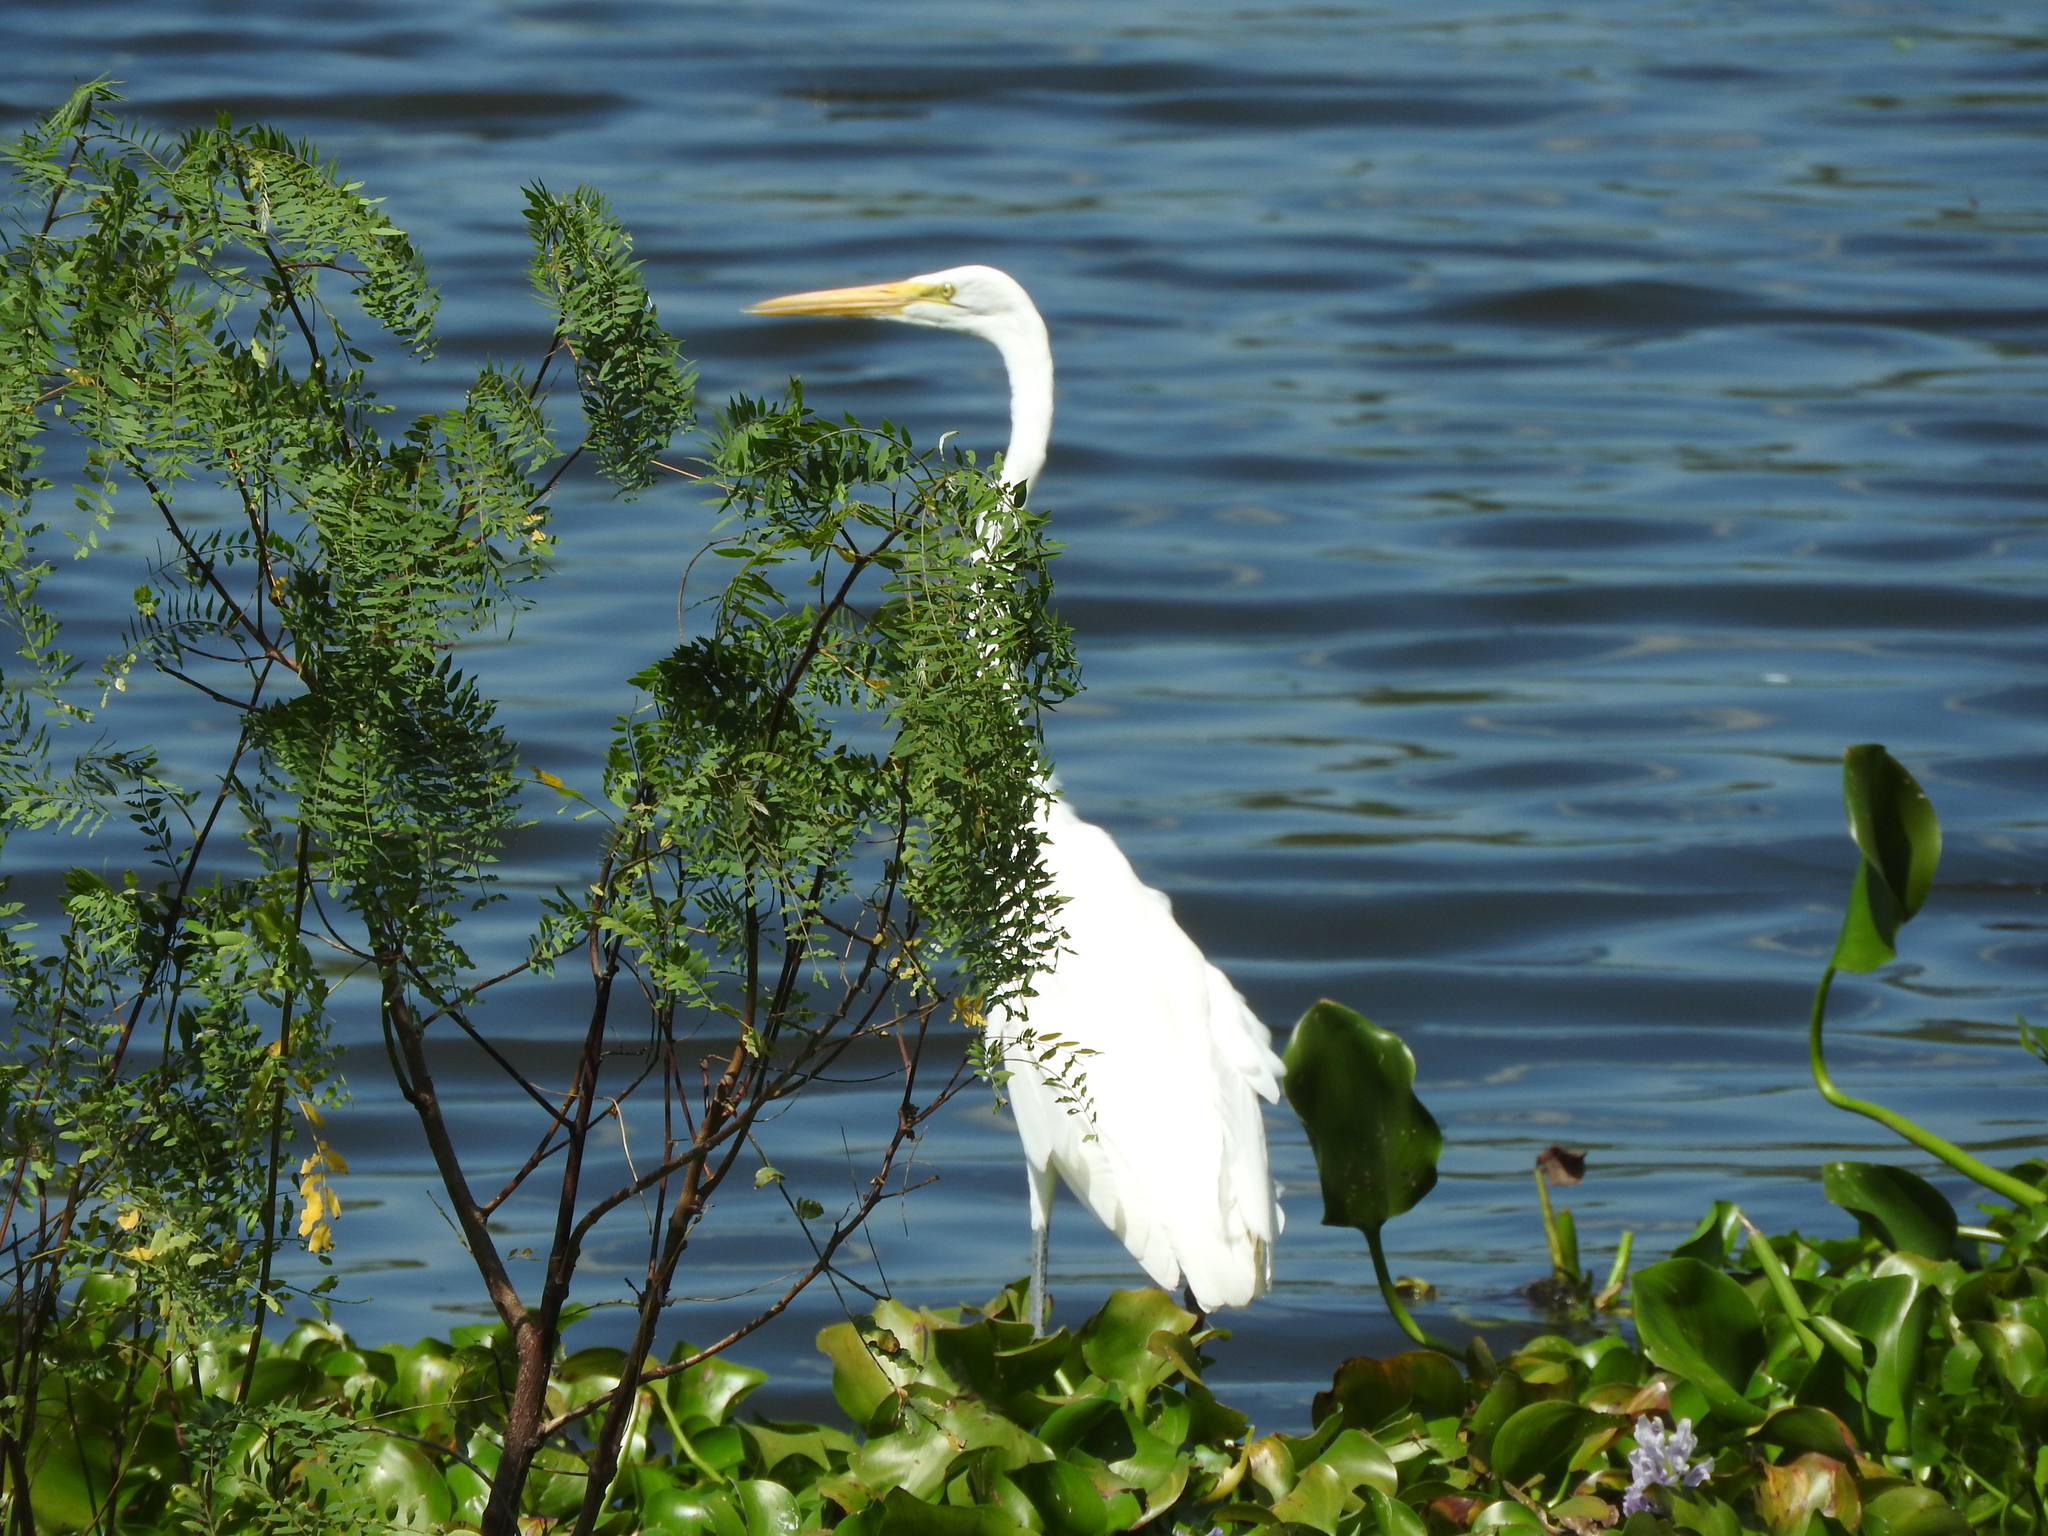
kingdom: Animalia
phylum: Chordata
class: Aves
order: Pelecaniformes
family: Ardeidae
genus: Ardea
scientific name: Ardea alba
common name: Great egret
